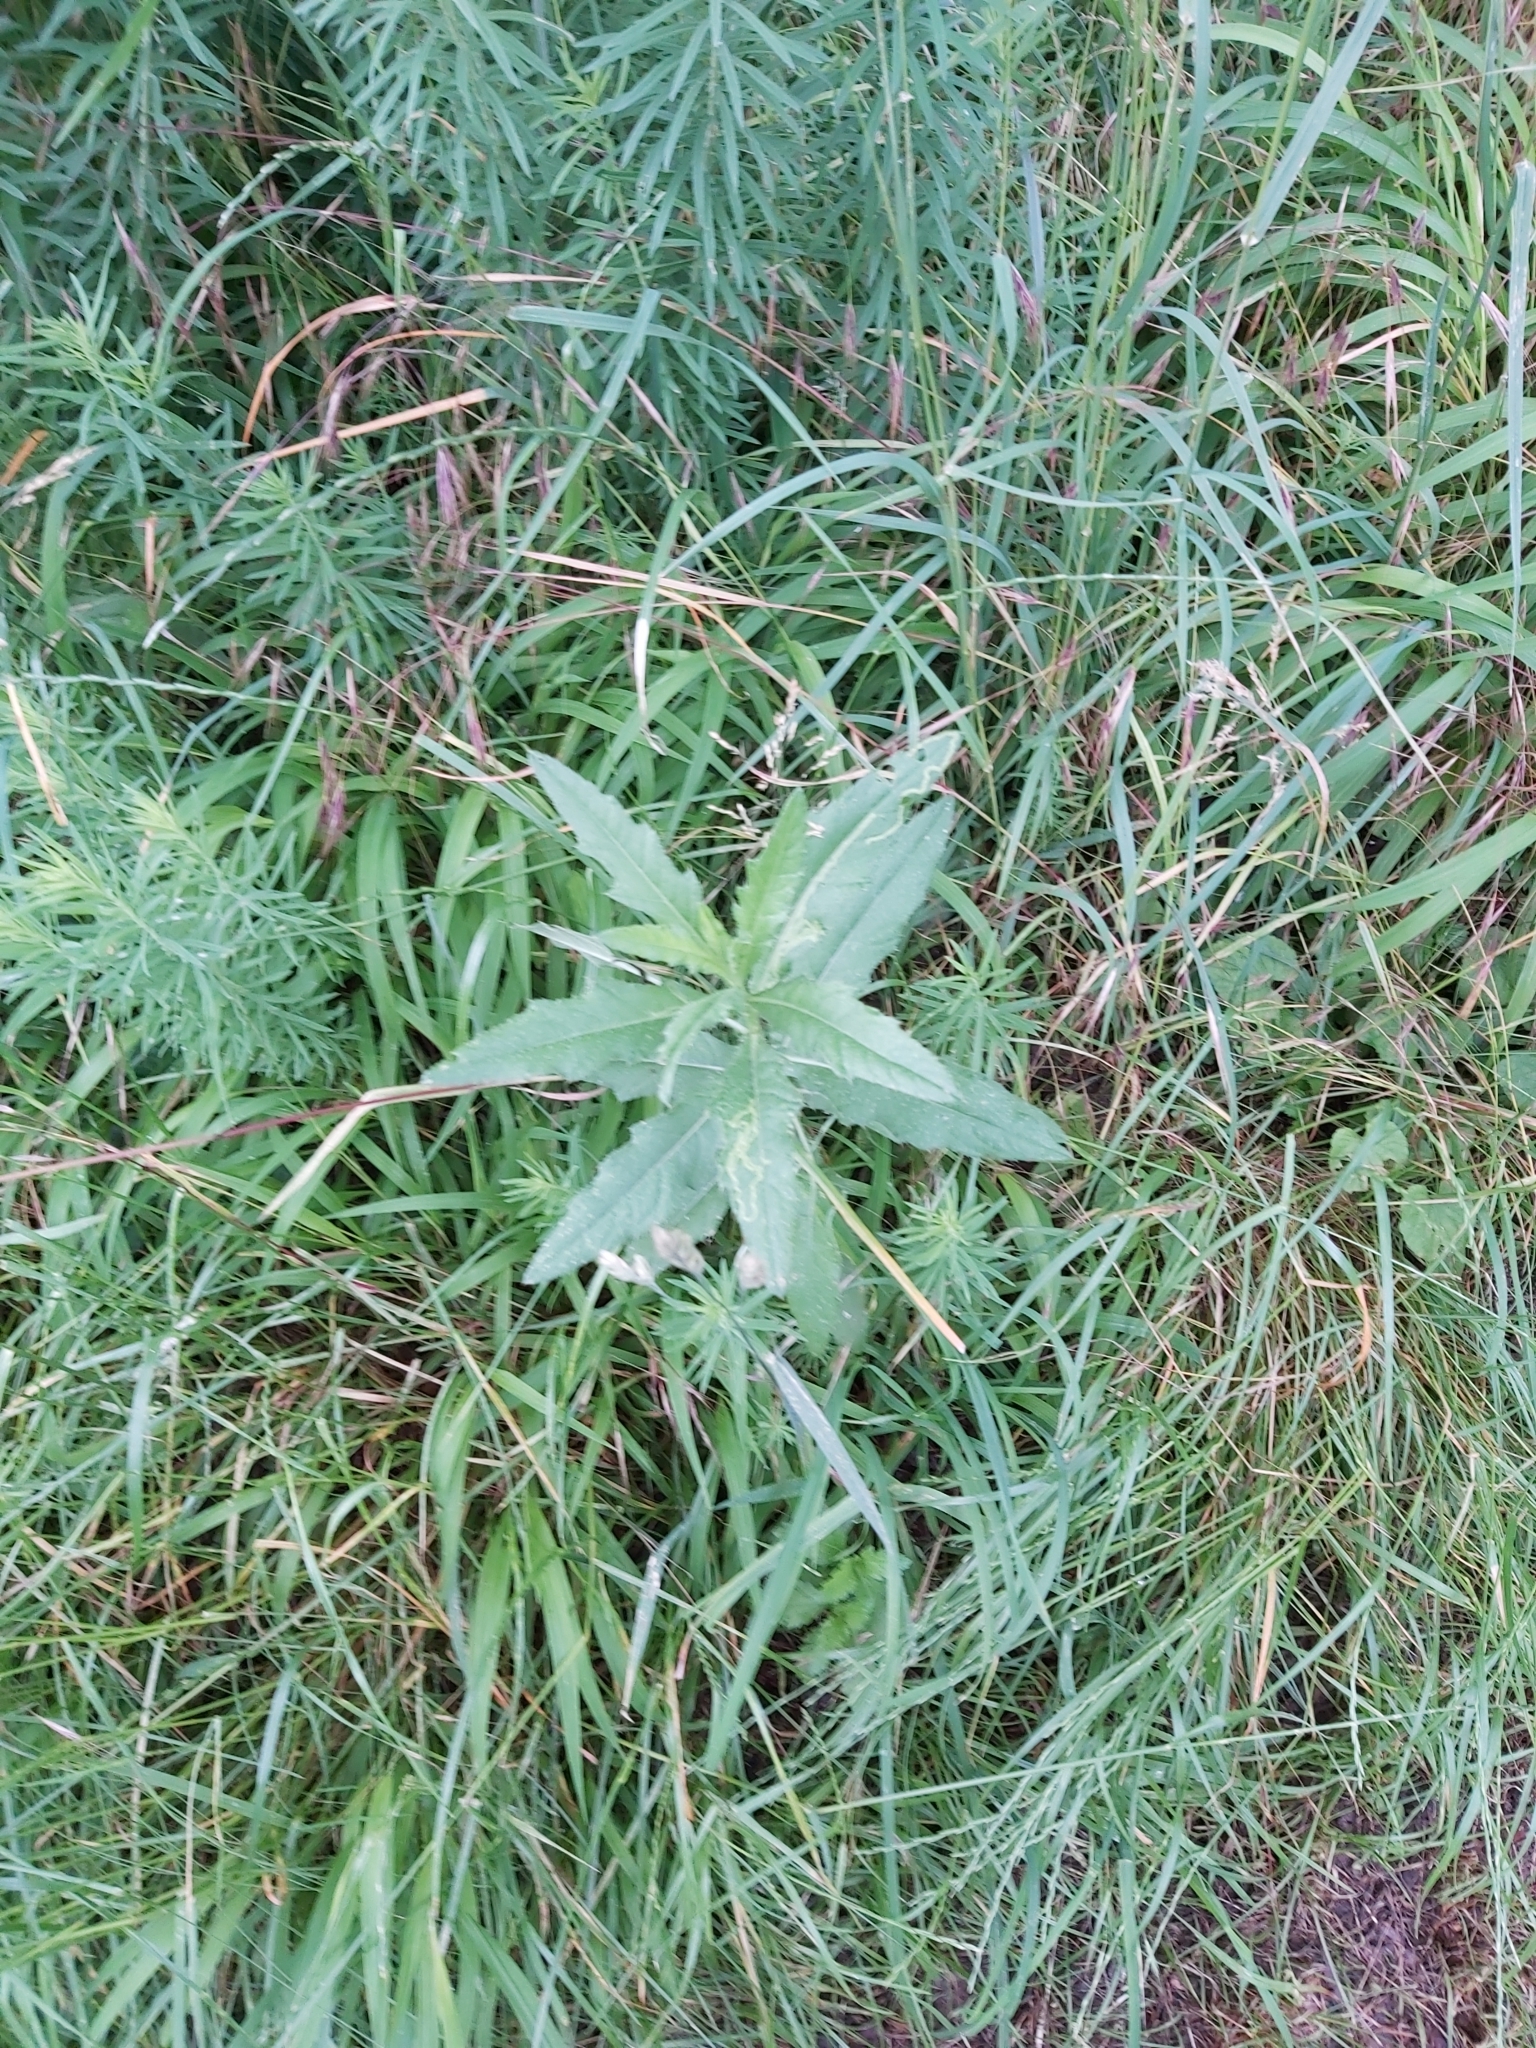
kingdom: Plantae
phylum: Tracheophyta
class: Magnoliopsida
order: Asterales
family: Asteraceae
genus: Cirsium
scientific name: Cirsium arvense
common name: Creeping thistle
